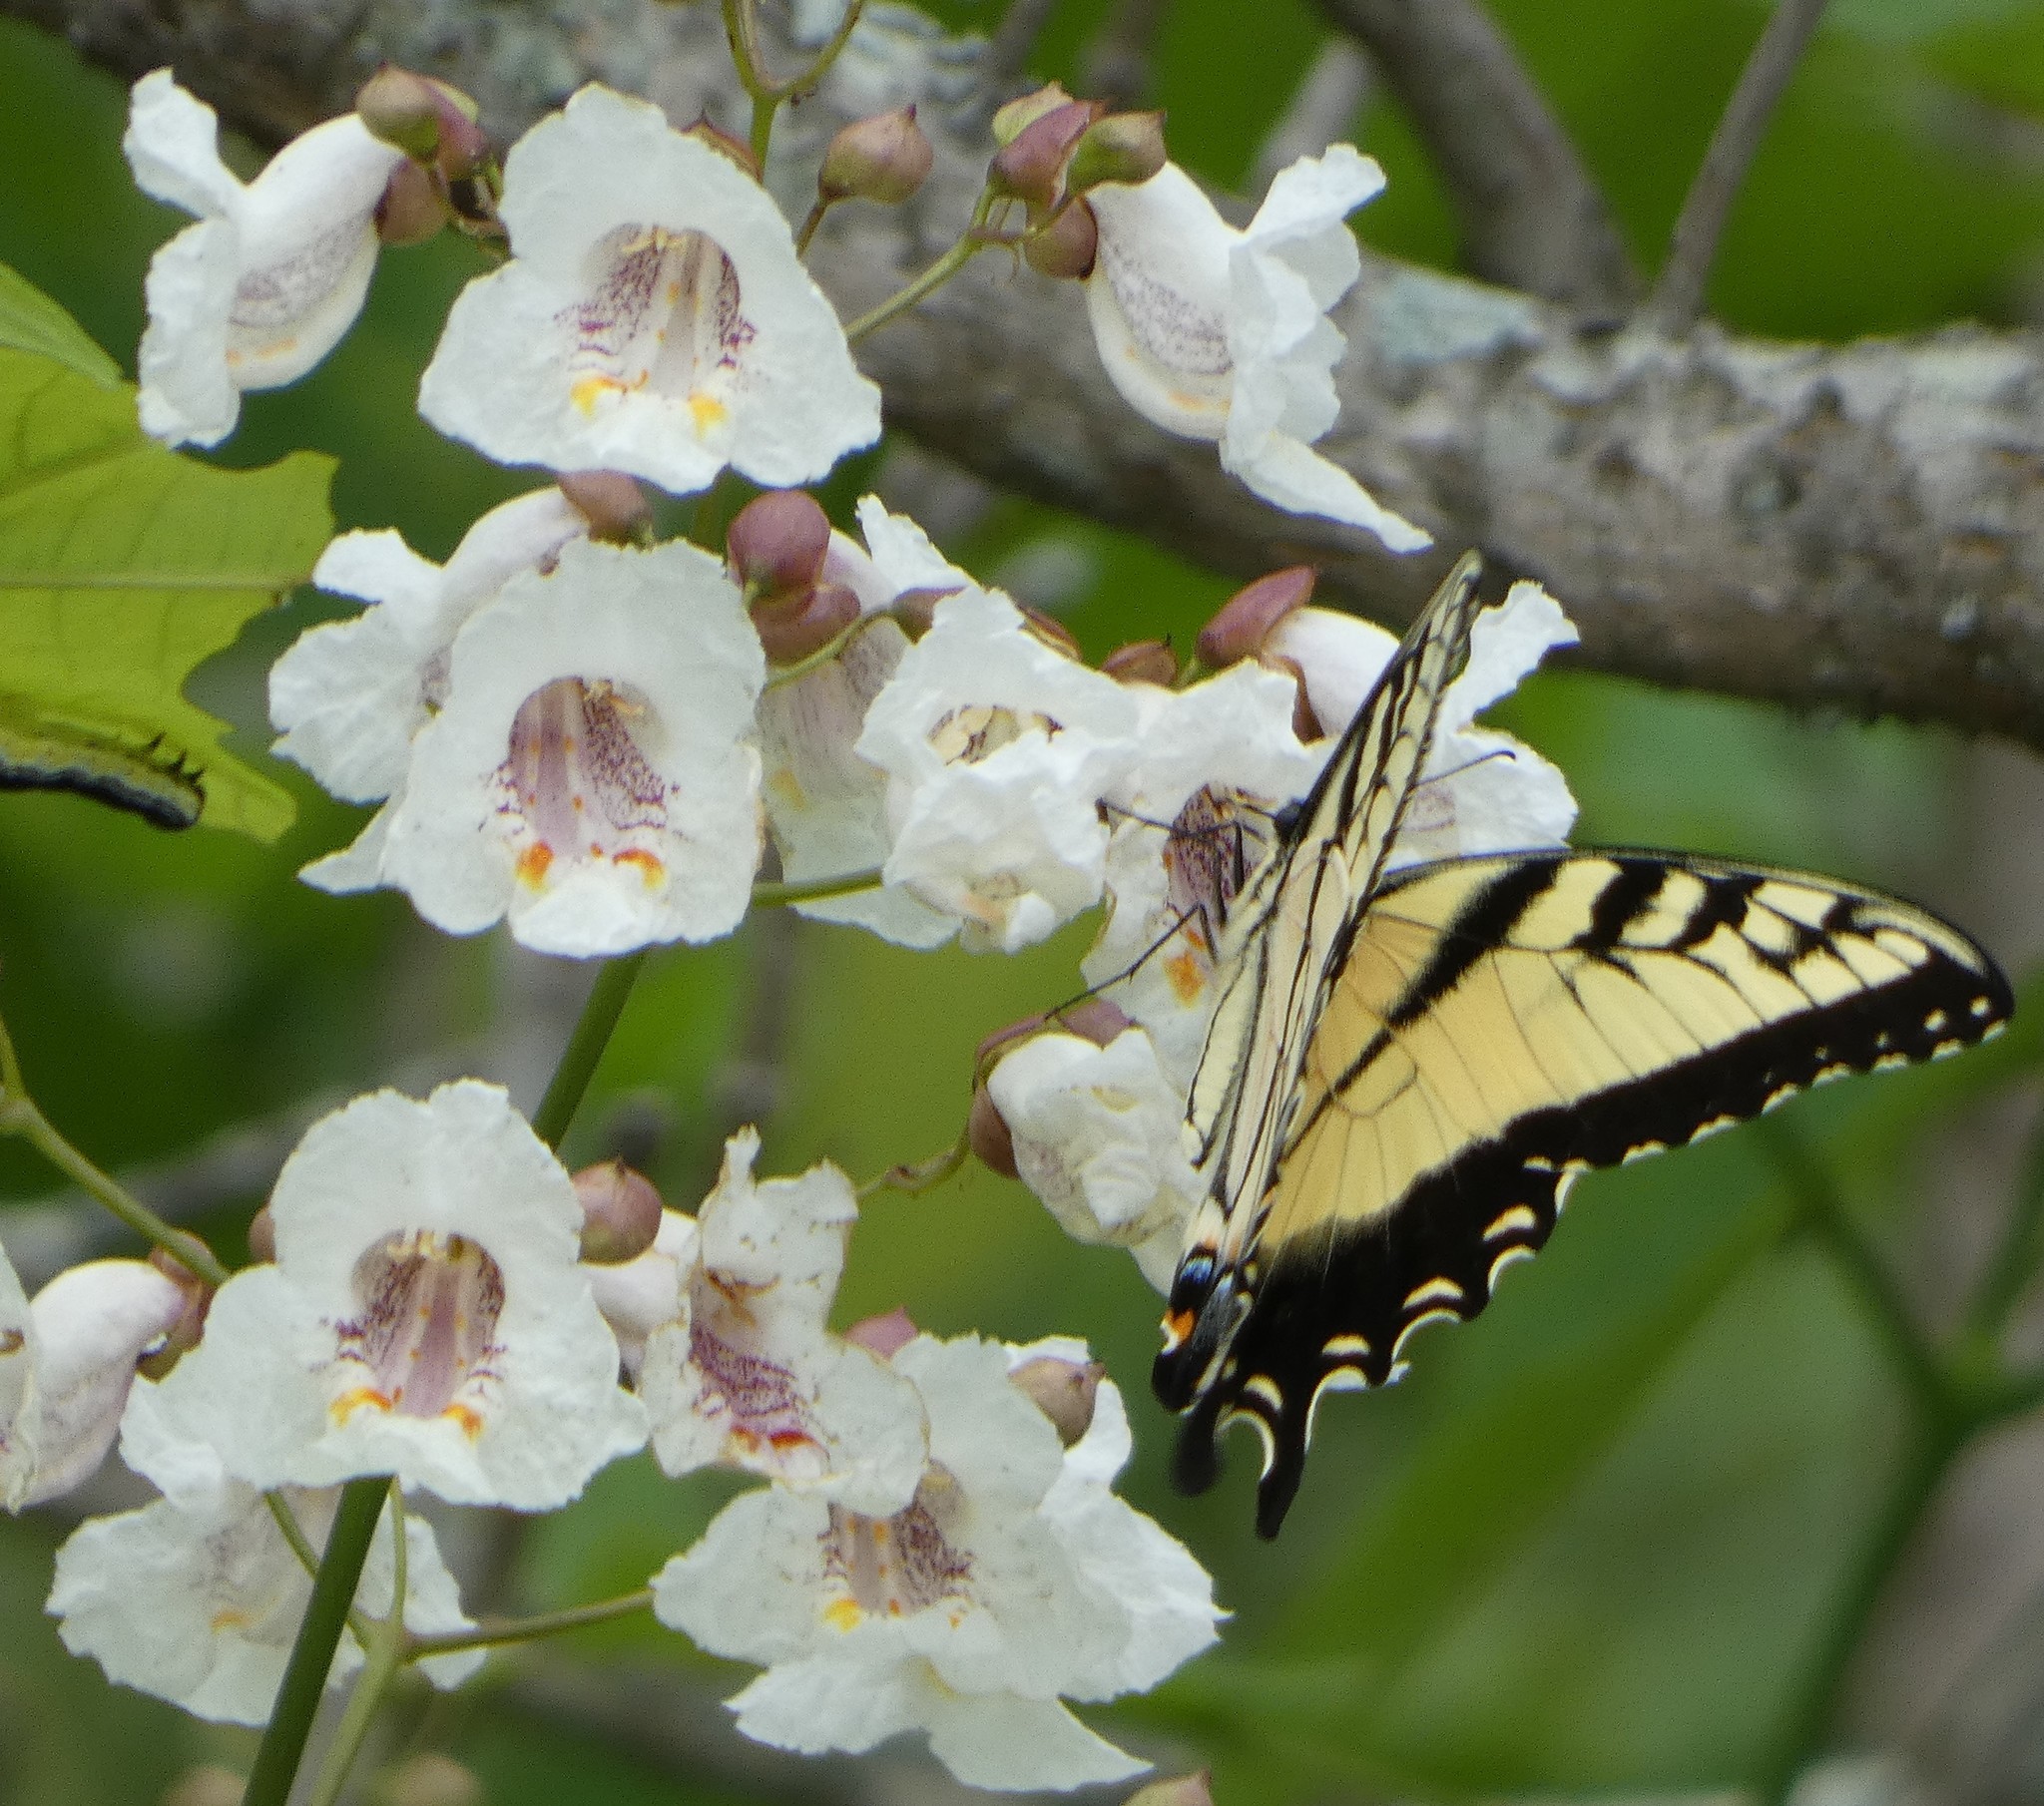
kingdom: Animalia
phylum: Arthropoda
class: Insecta
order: Lepidoptera
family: Papilionidae
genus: Papilio
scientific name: Papilio glaucus
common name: Tiger swallowtail
